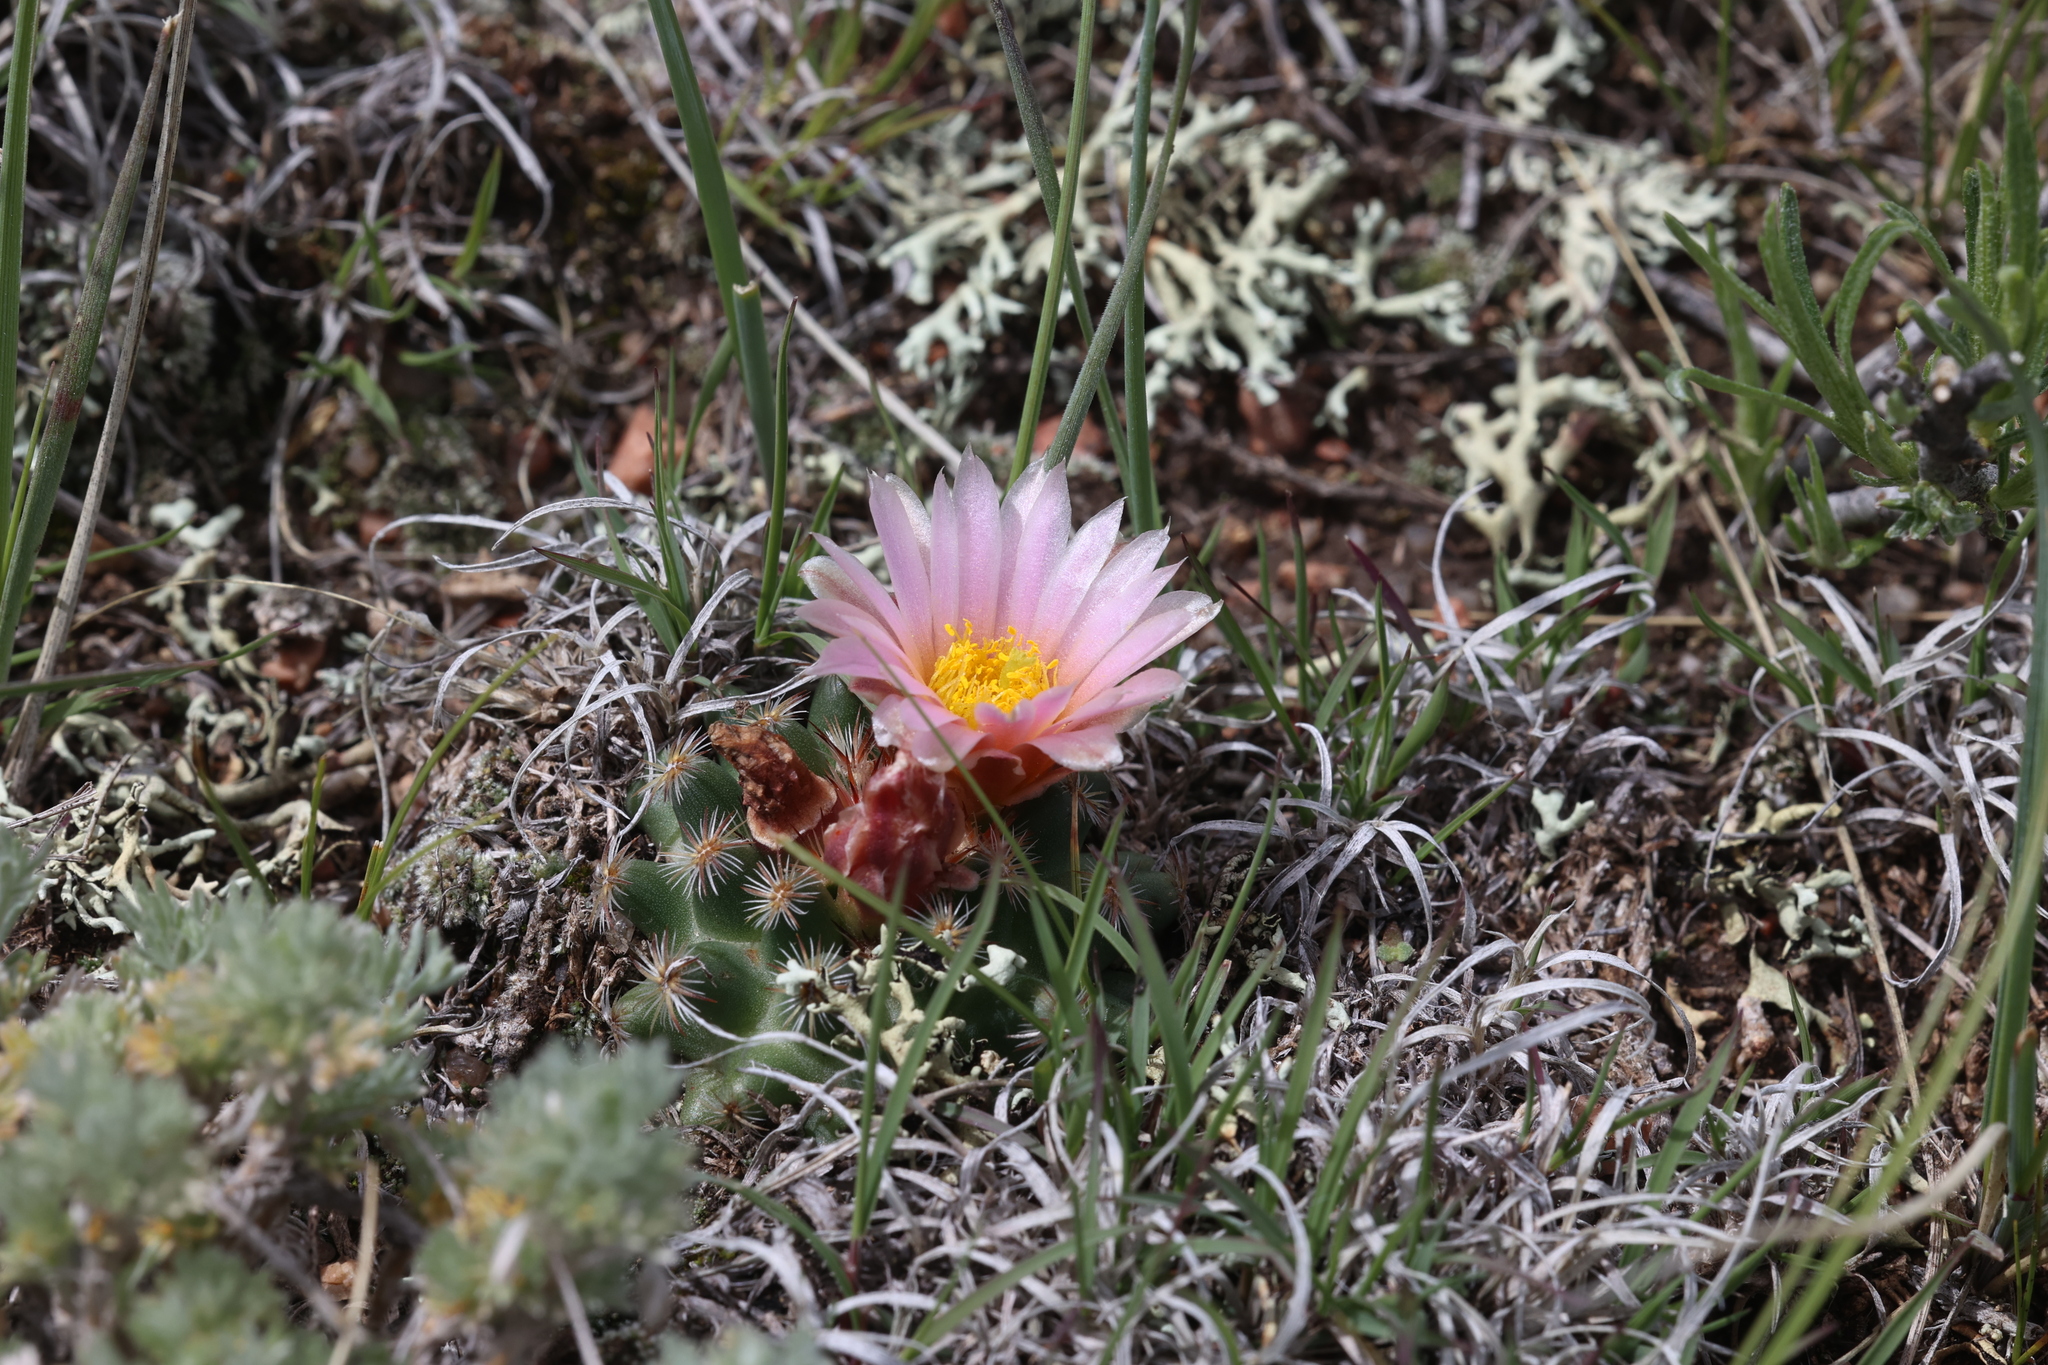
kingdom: Plantae
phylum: Tracheophyta
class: Magnoliopsida
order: Caryophyllales
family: Cactaceae
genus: Pediocactus
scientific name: Pediocactus simpsonii
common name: Simpson's hedgehog cactus
